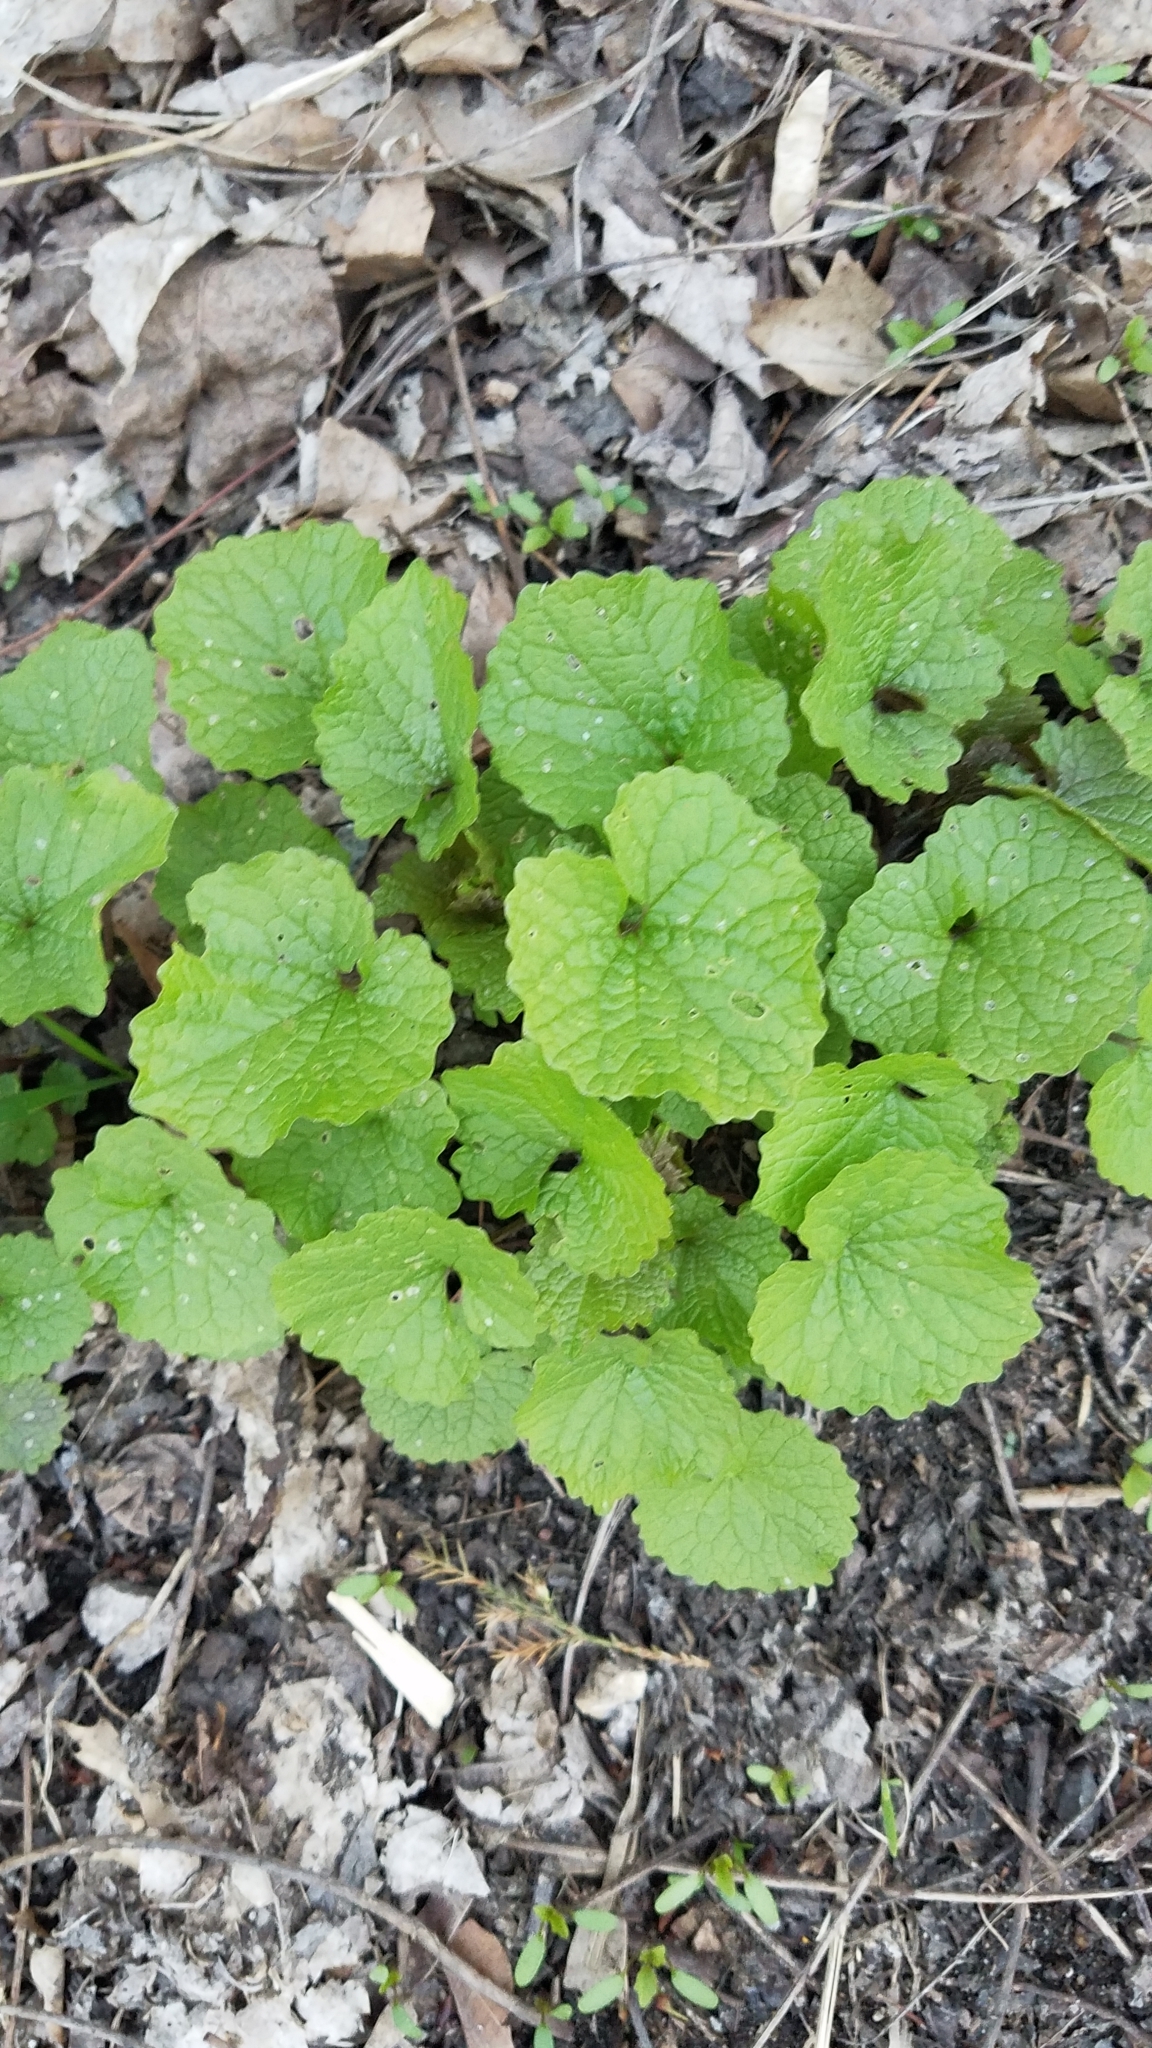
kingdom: Plantae
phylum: Tracheophyta
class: Magnoliopsida
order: Brassicales
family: Brassicaceae
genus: Alliaria
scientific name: Alliaria petiolata
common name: Garlic mustard
